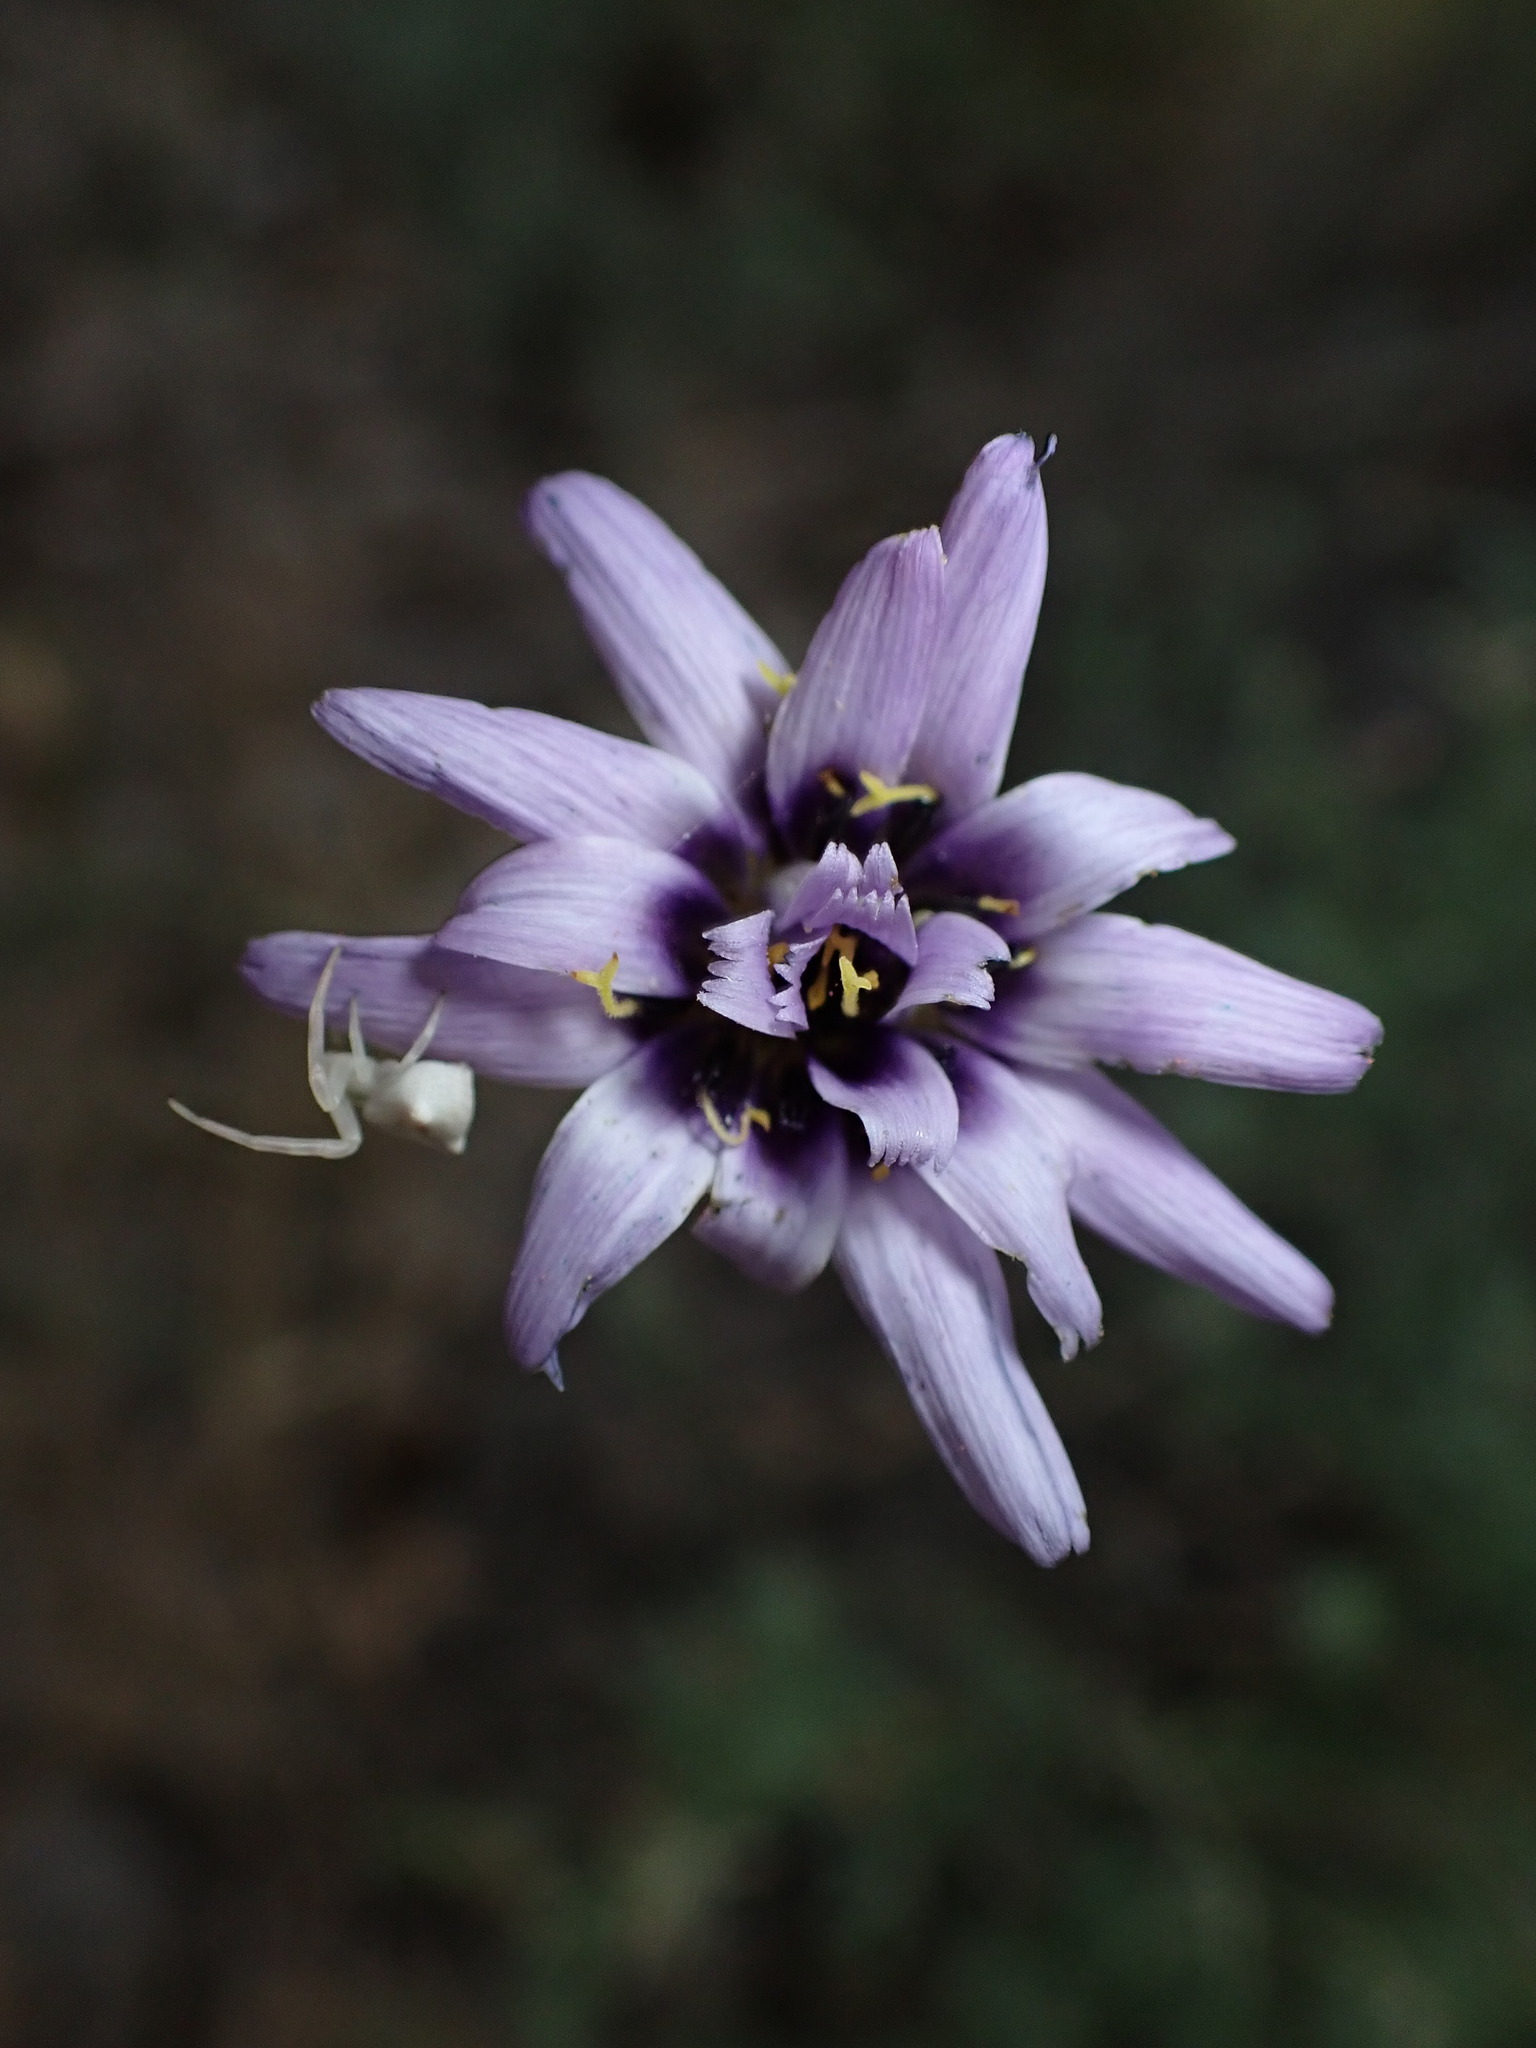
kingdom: Plantae
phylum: Tracheophyta
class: Magnoliopsida
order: Asterales
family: Asteraceae
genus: Catananche
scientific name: Catananche caerulea
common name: Blue cupidone
